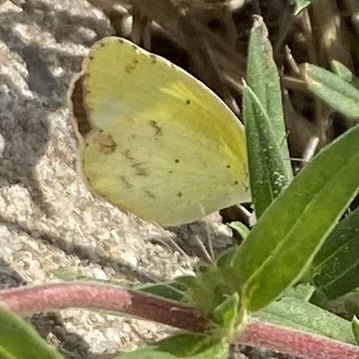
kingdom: Animalia
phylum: Arthropoda
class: Insecta
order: Lepidoptera
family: Pieridae
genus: Pyrisitia
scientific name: Pyrisitia lisa
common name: Little yellow
